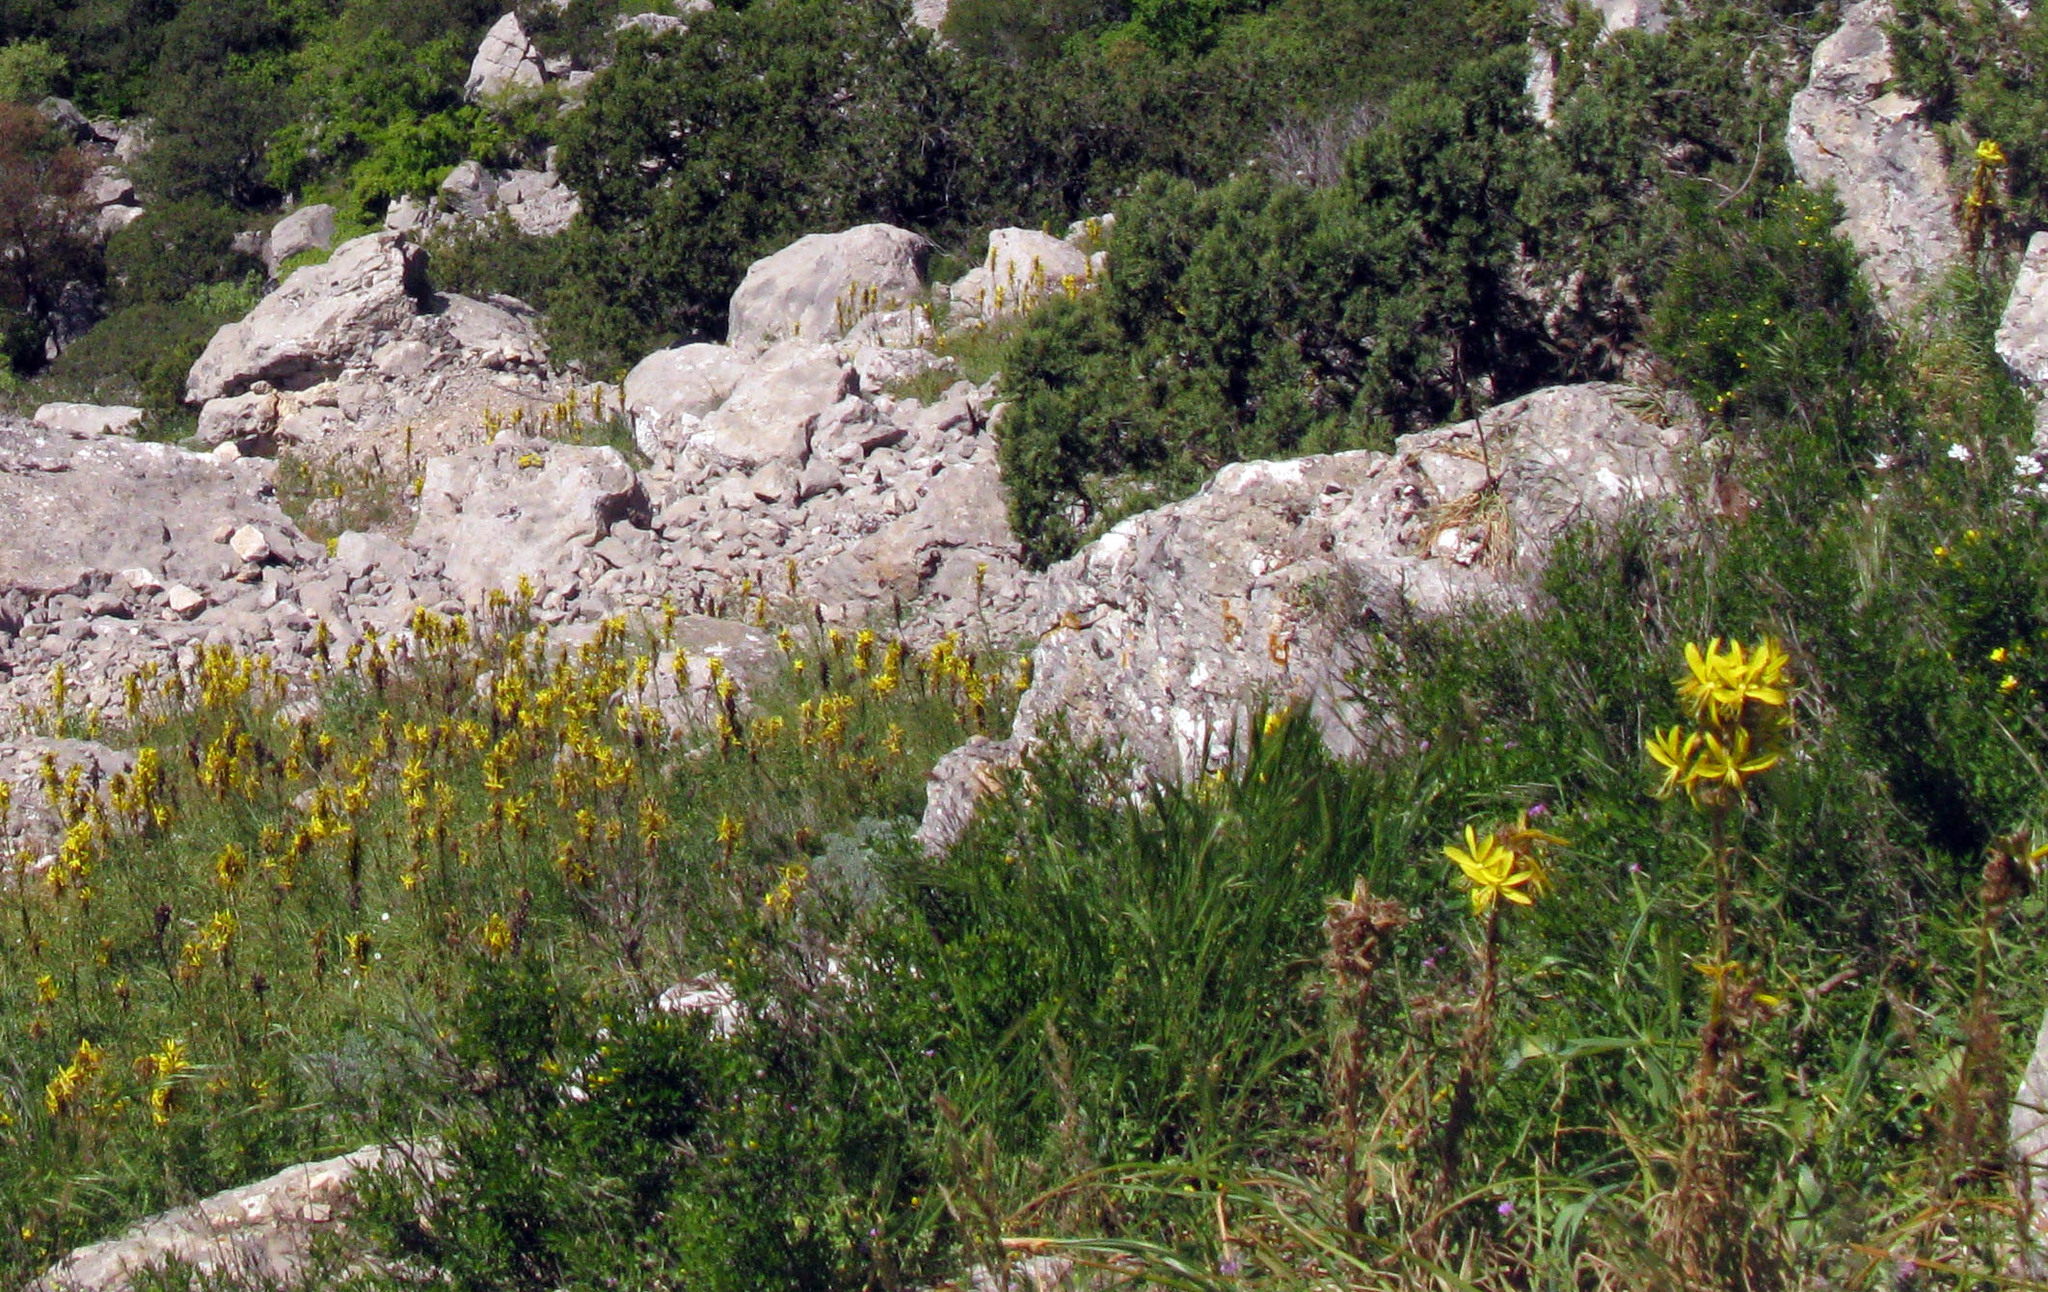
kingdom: Plantae
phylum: Tracheophyta
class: Liliopsida
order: Asparagales
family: Asphodelaceae
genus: Asphodeline
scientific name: Asphodeline lutea
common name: Yellow asphodel
